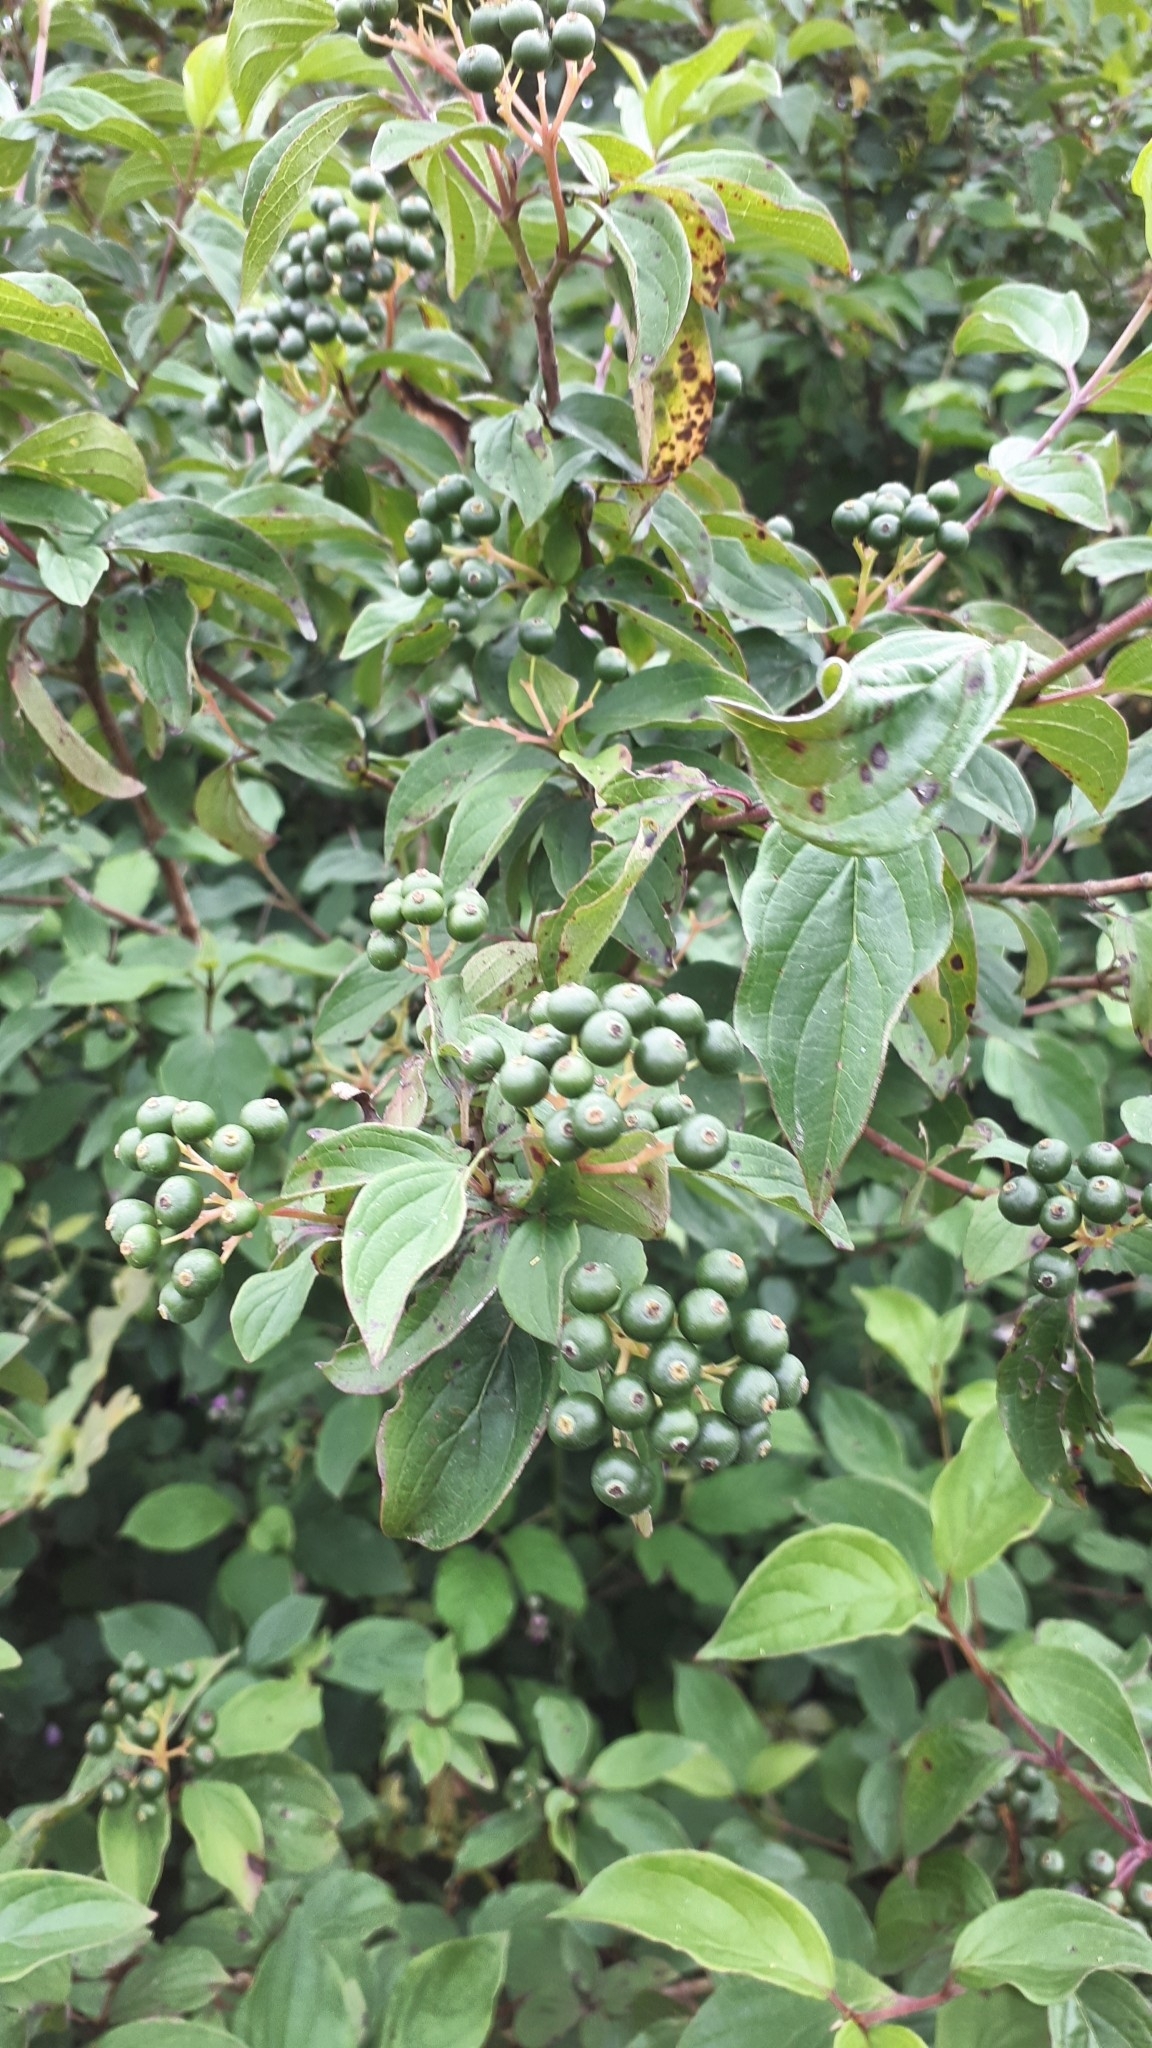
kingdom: Plantae
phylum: Tracheophyta
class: Magnoliopsida
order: Cornales
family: Cornaceae
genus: Cornus
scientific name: Cornus sanguinea
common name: Dogwood
